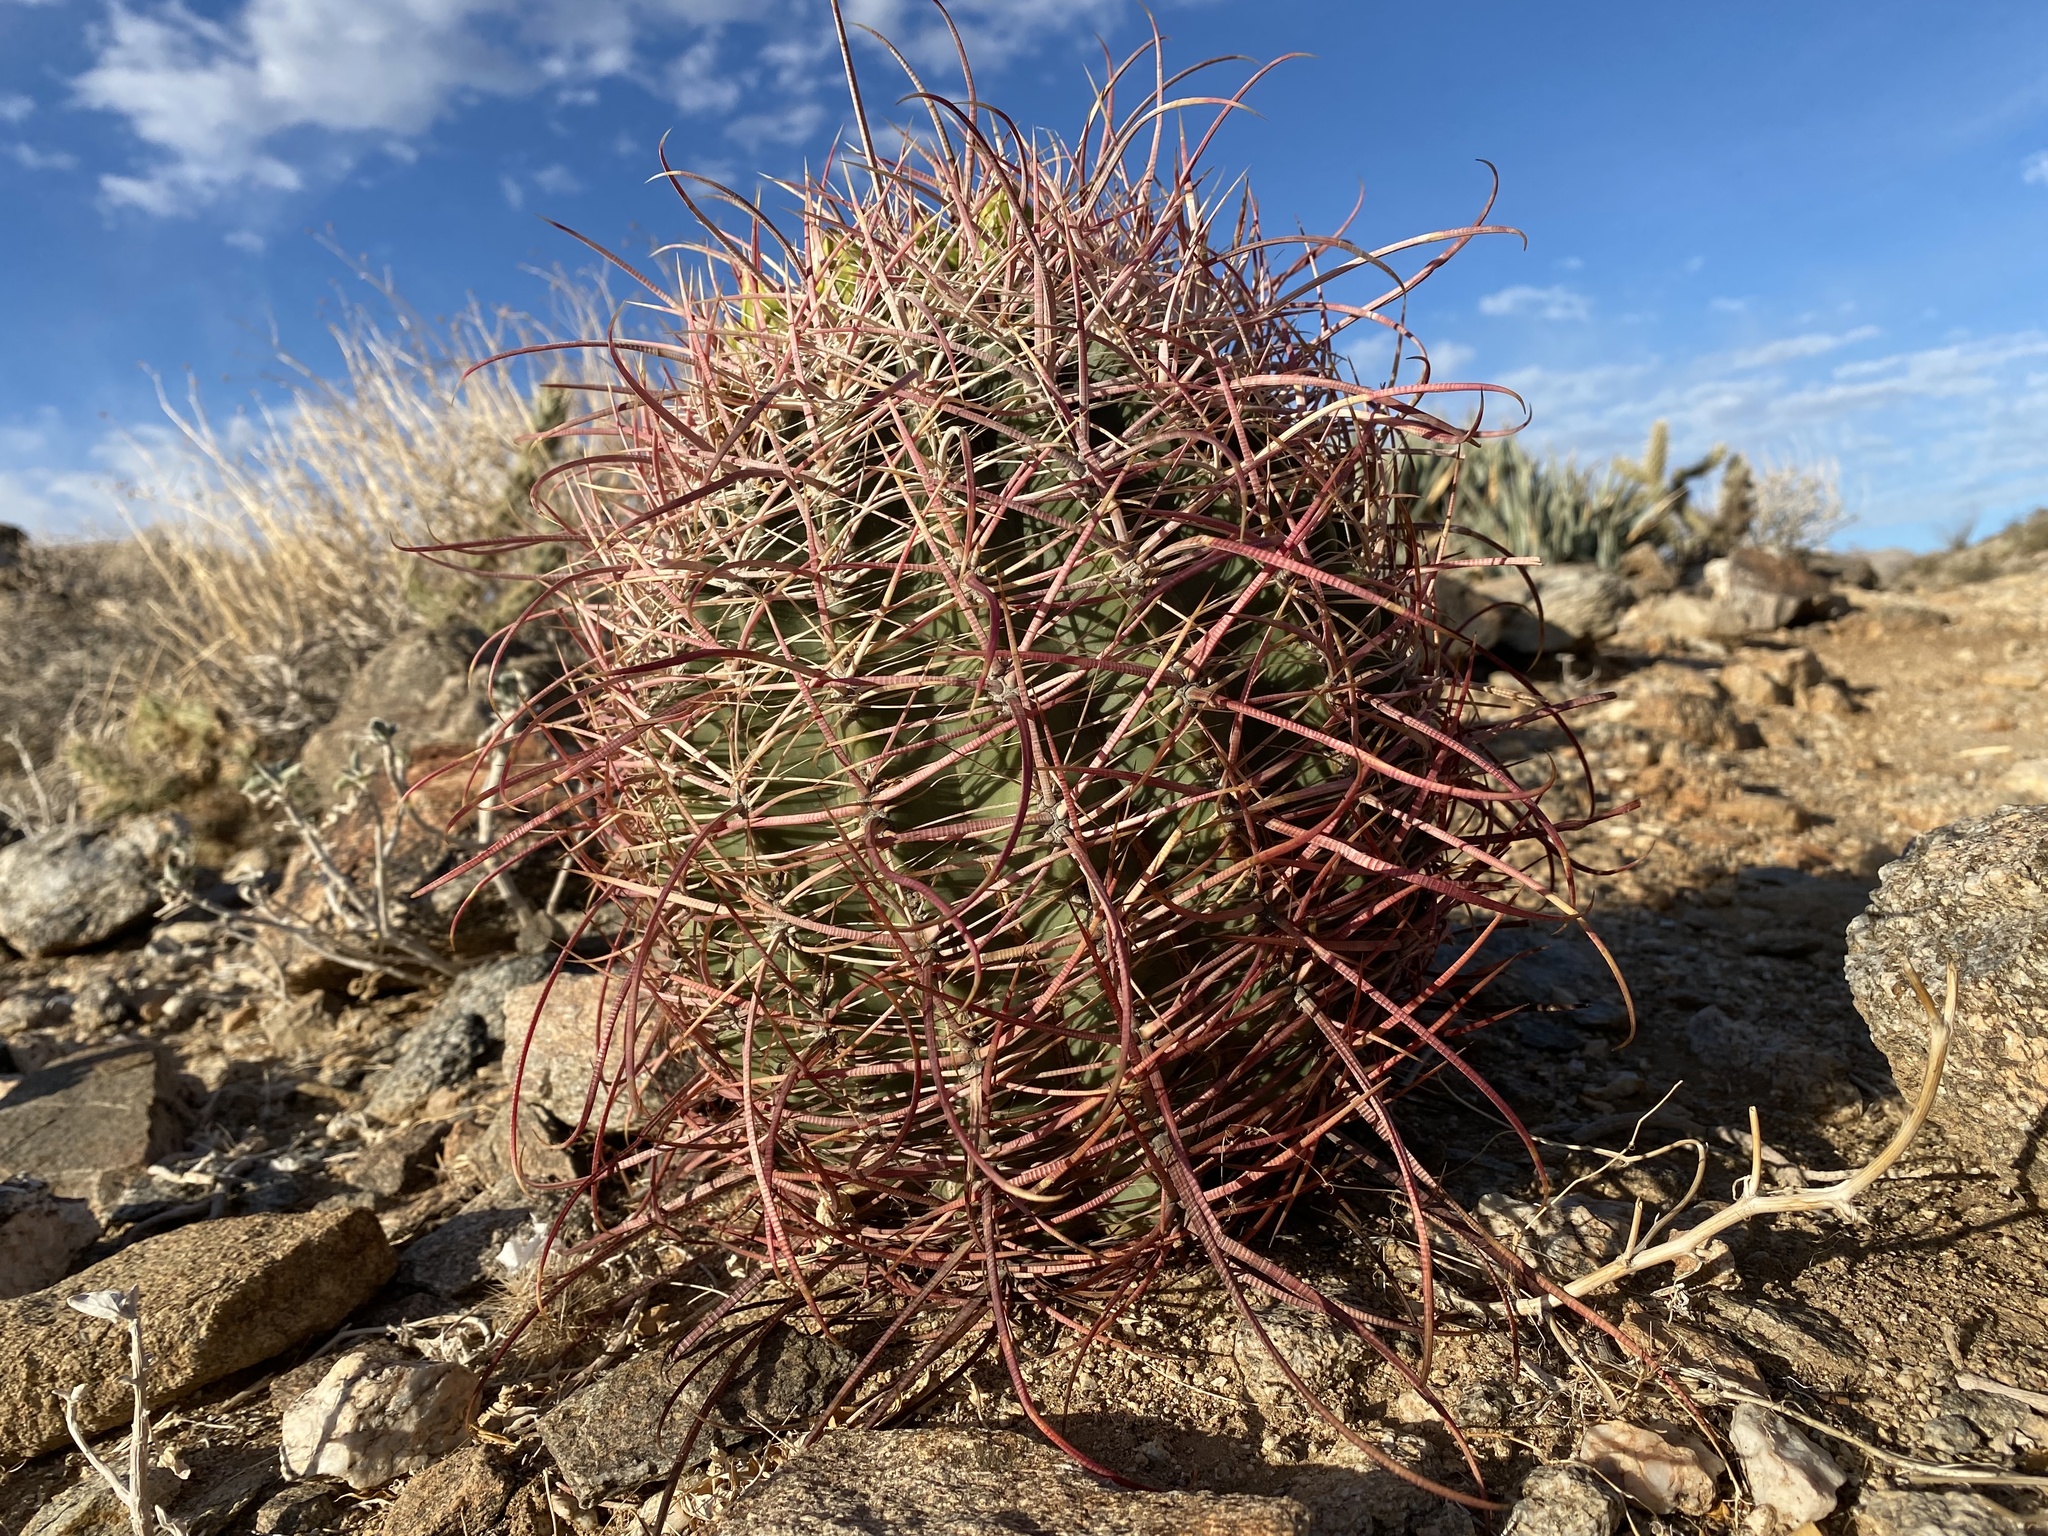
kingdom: Plantae
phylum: Tracheophyta
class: Magnoliopsida
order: Caryophyllales
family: Cactaceae
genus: Ferocactus
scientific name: Ferocactus cylindraceus
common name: California barrel cactus
